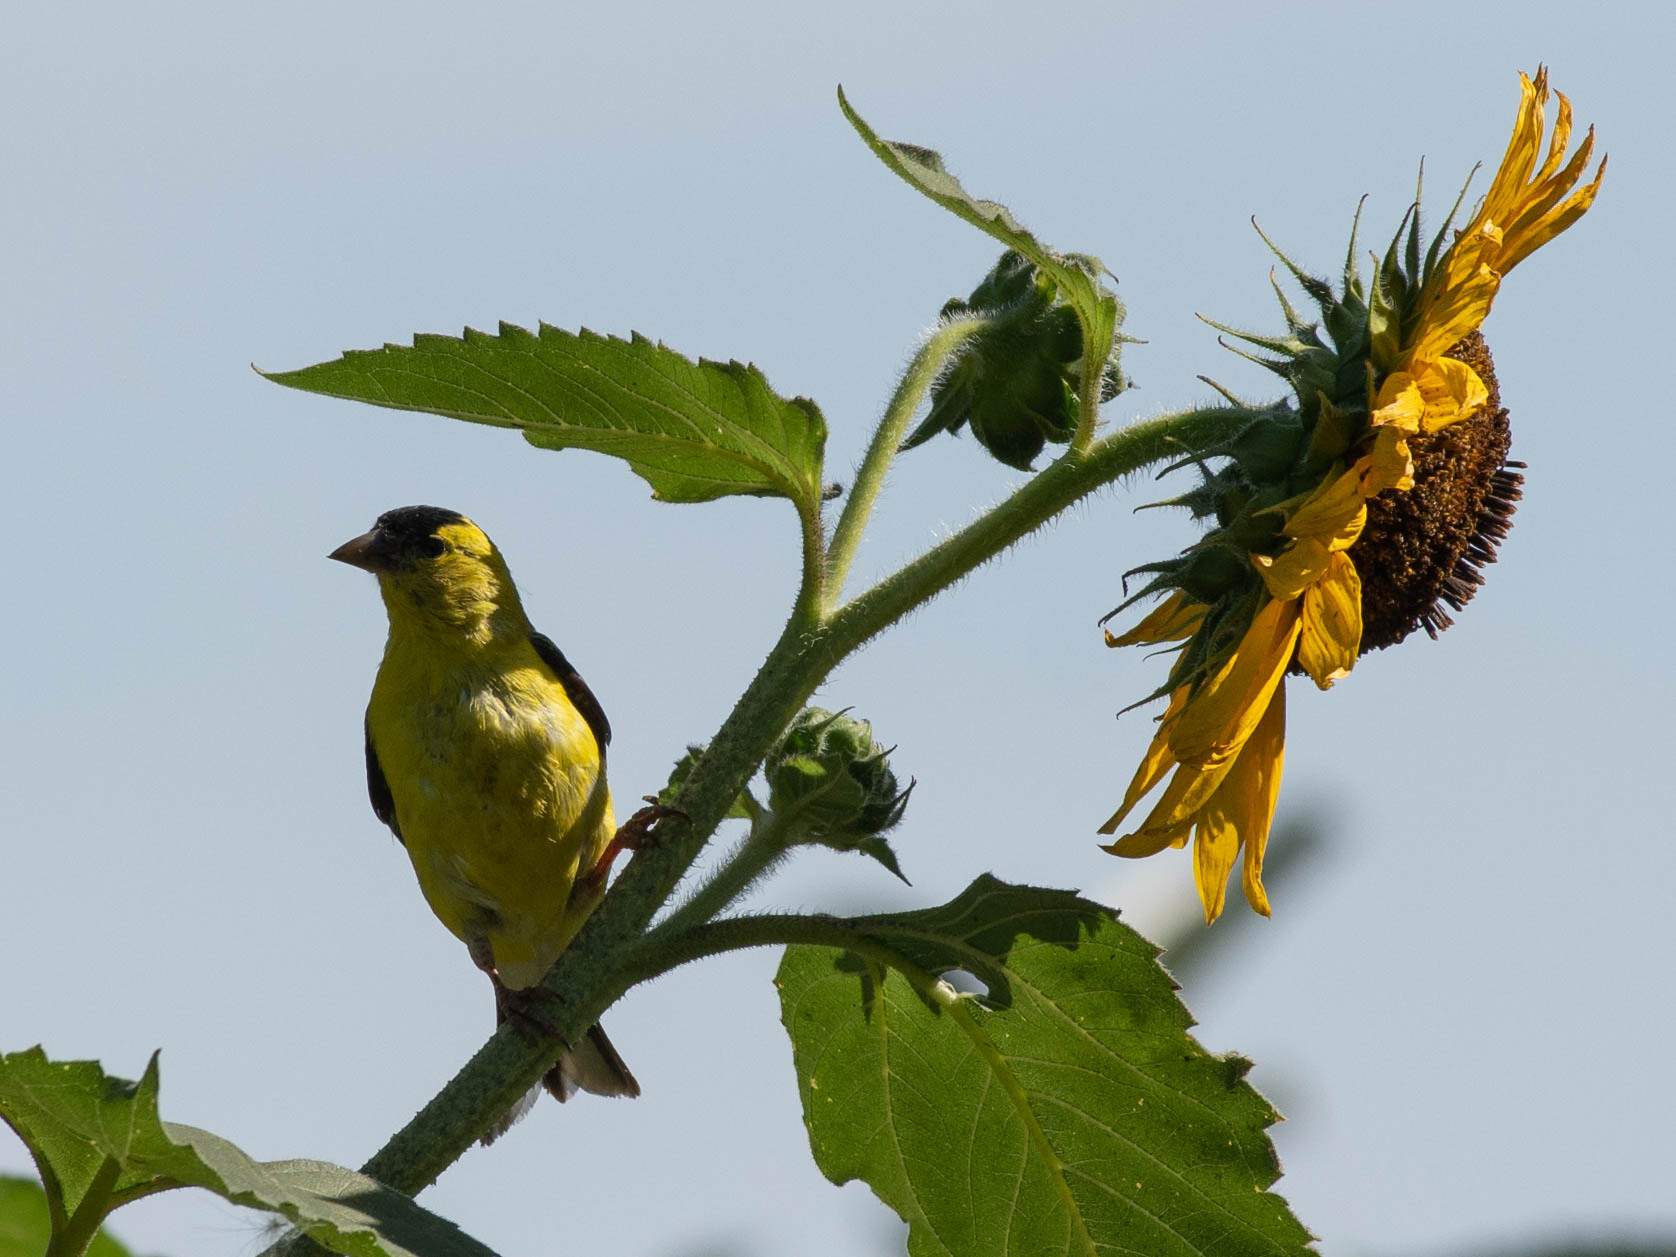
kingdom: Animalia
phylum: Chordata
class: Aves
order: Passeriformes
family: Fringillidae
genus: Spinus
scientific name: Spinus tristis
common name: American goldfinch
